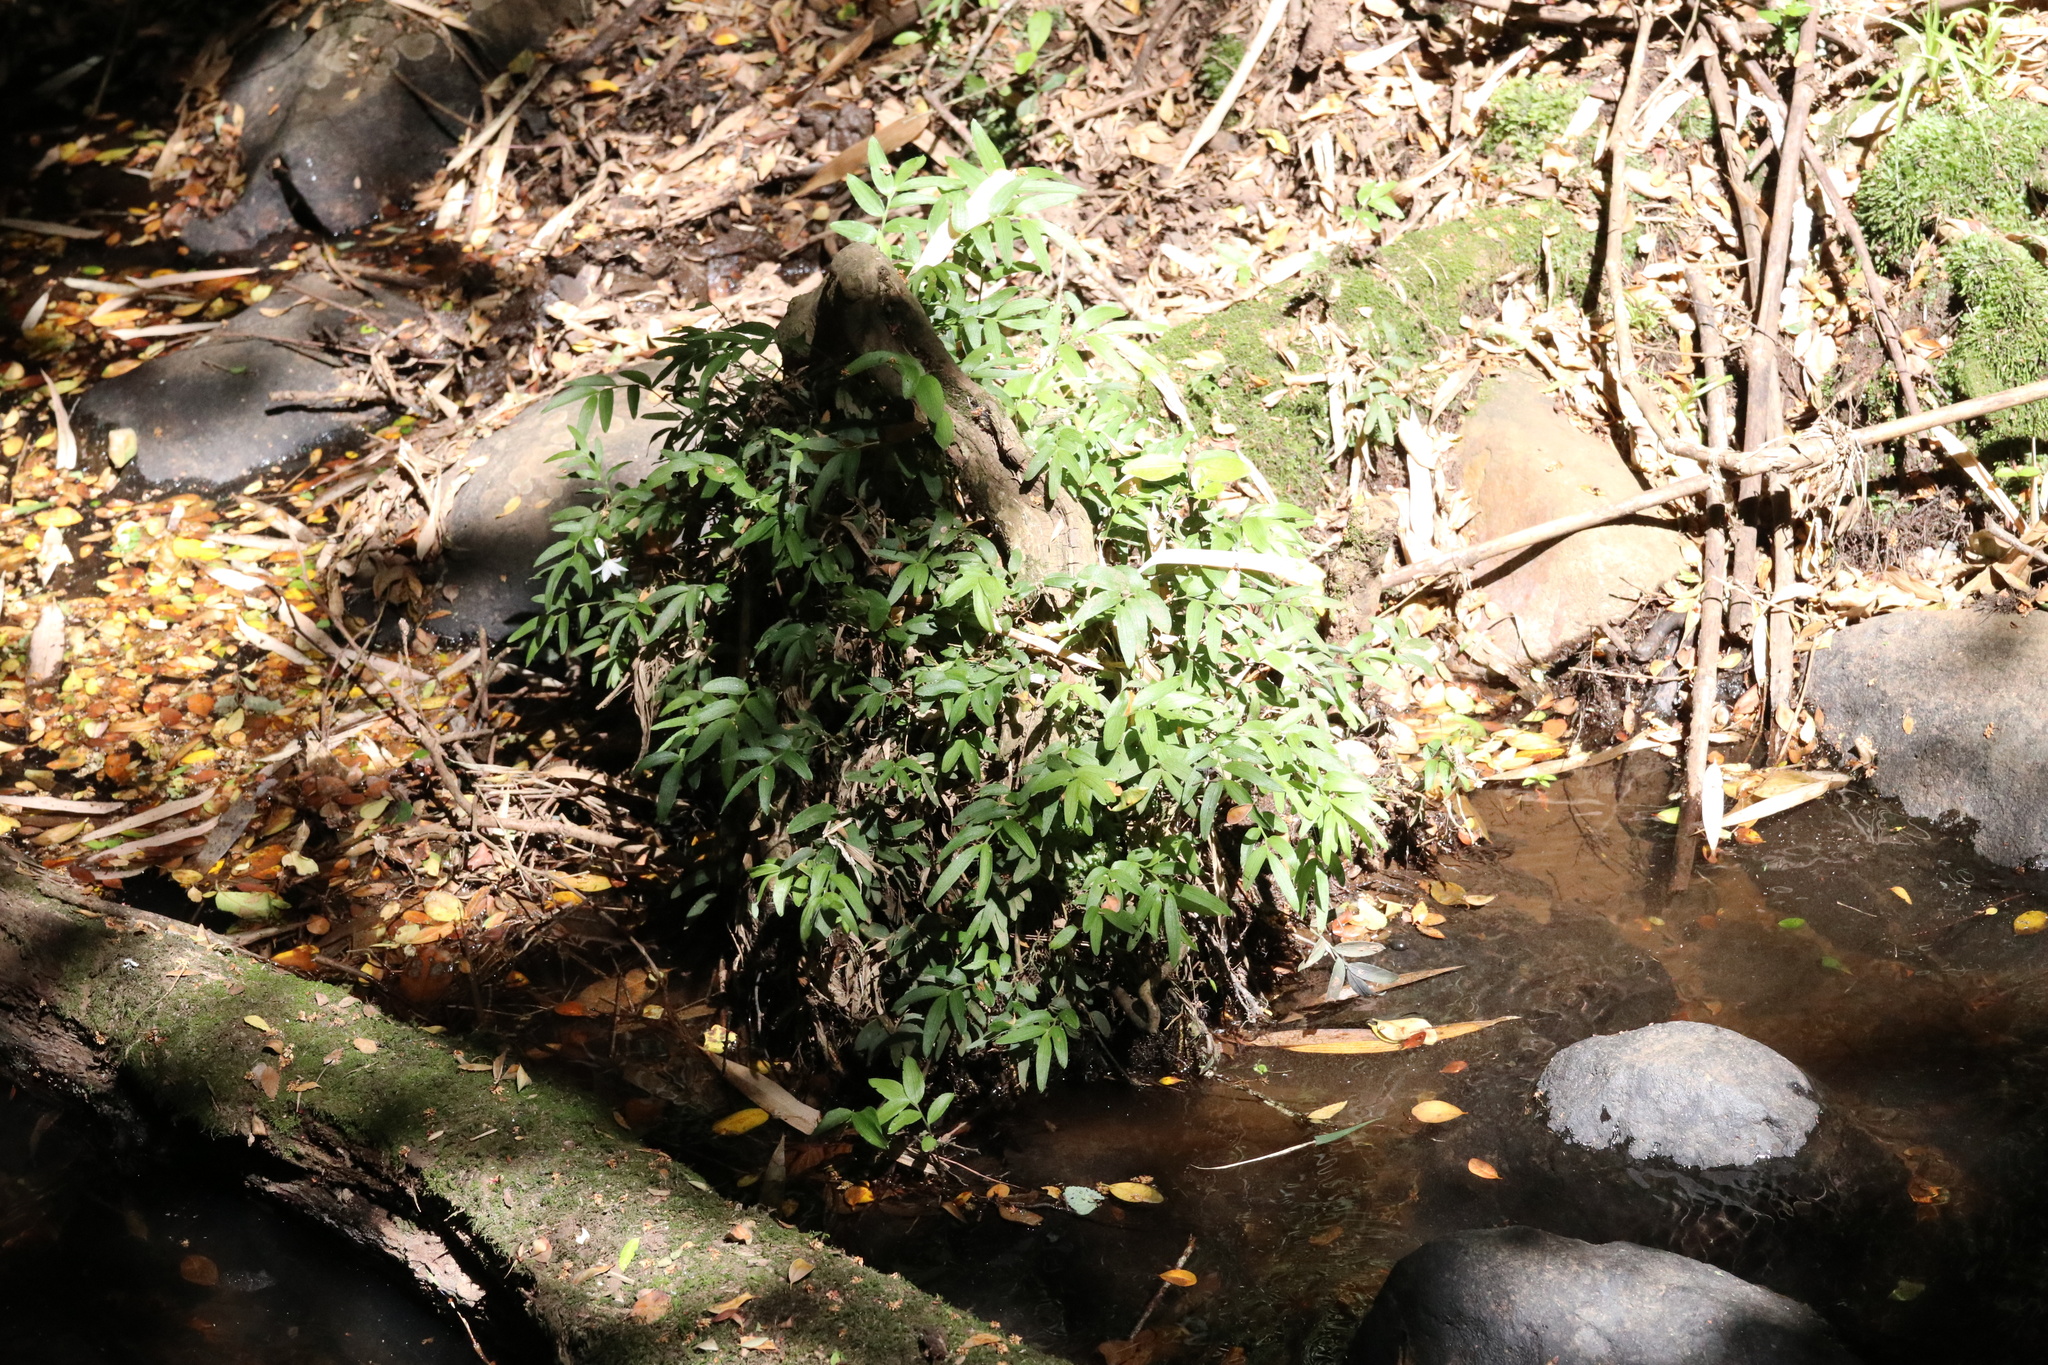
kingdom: Plantae
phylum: Tracheophyta
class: Liliopsida
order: Liliales
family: Alstroemeriaceae
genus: Luzuriaga
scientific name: Luzuriaga radicans
